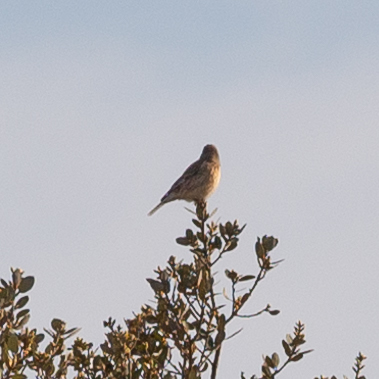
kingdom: Animalia
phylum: Chordata
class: Aves
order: Passeriformes
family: Fringillidae
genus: Linaria
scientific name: Linaria cannabina
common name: Common linnet
